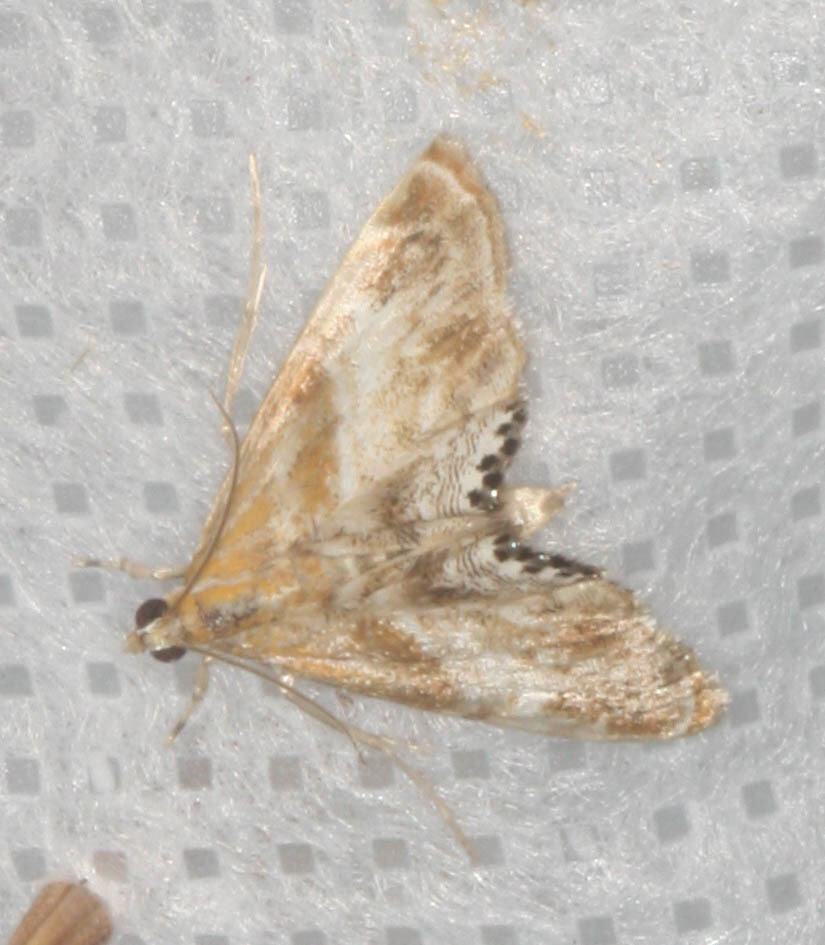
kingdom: Animalia
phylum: Arthropoda
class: Insecta
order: Lepidoptera
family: Crambidae
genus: Dicymolomia
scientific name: Dicymolomia metalliferalis
